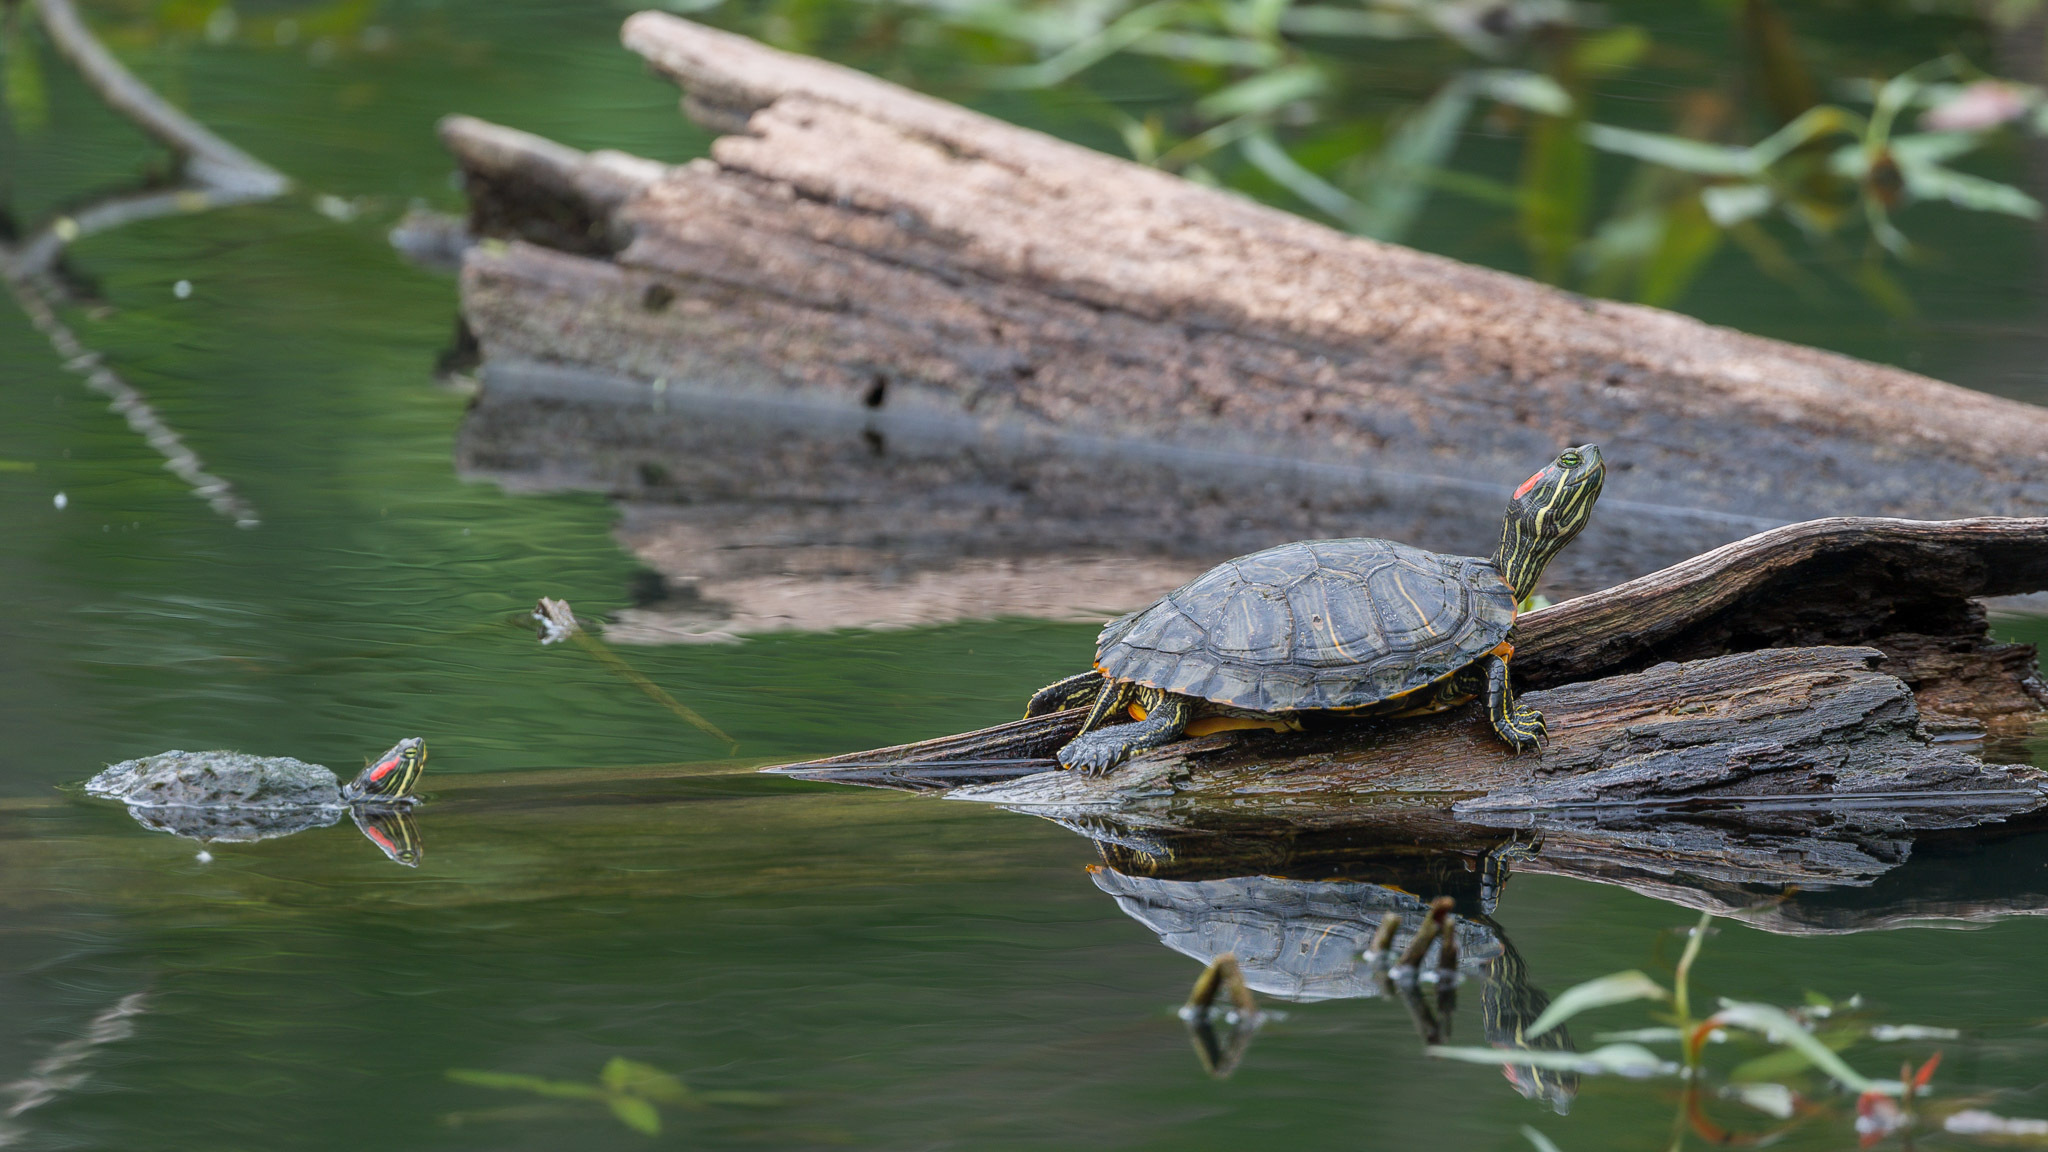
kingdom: Animalia
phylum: Chordata
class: Testudines
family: Emydidae
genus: Trachemys
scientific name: Trachemys scripta
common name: Slider
